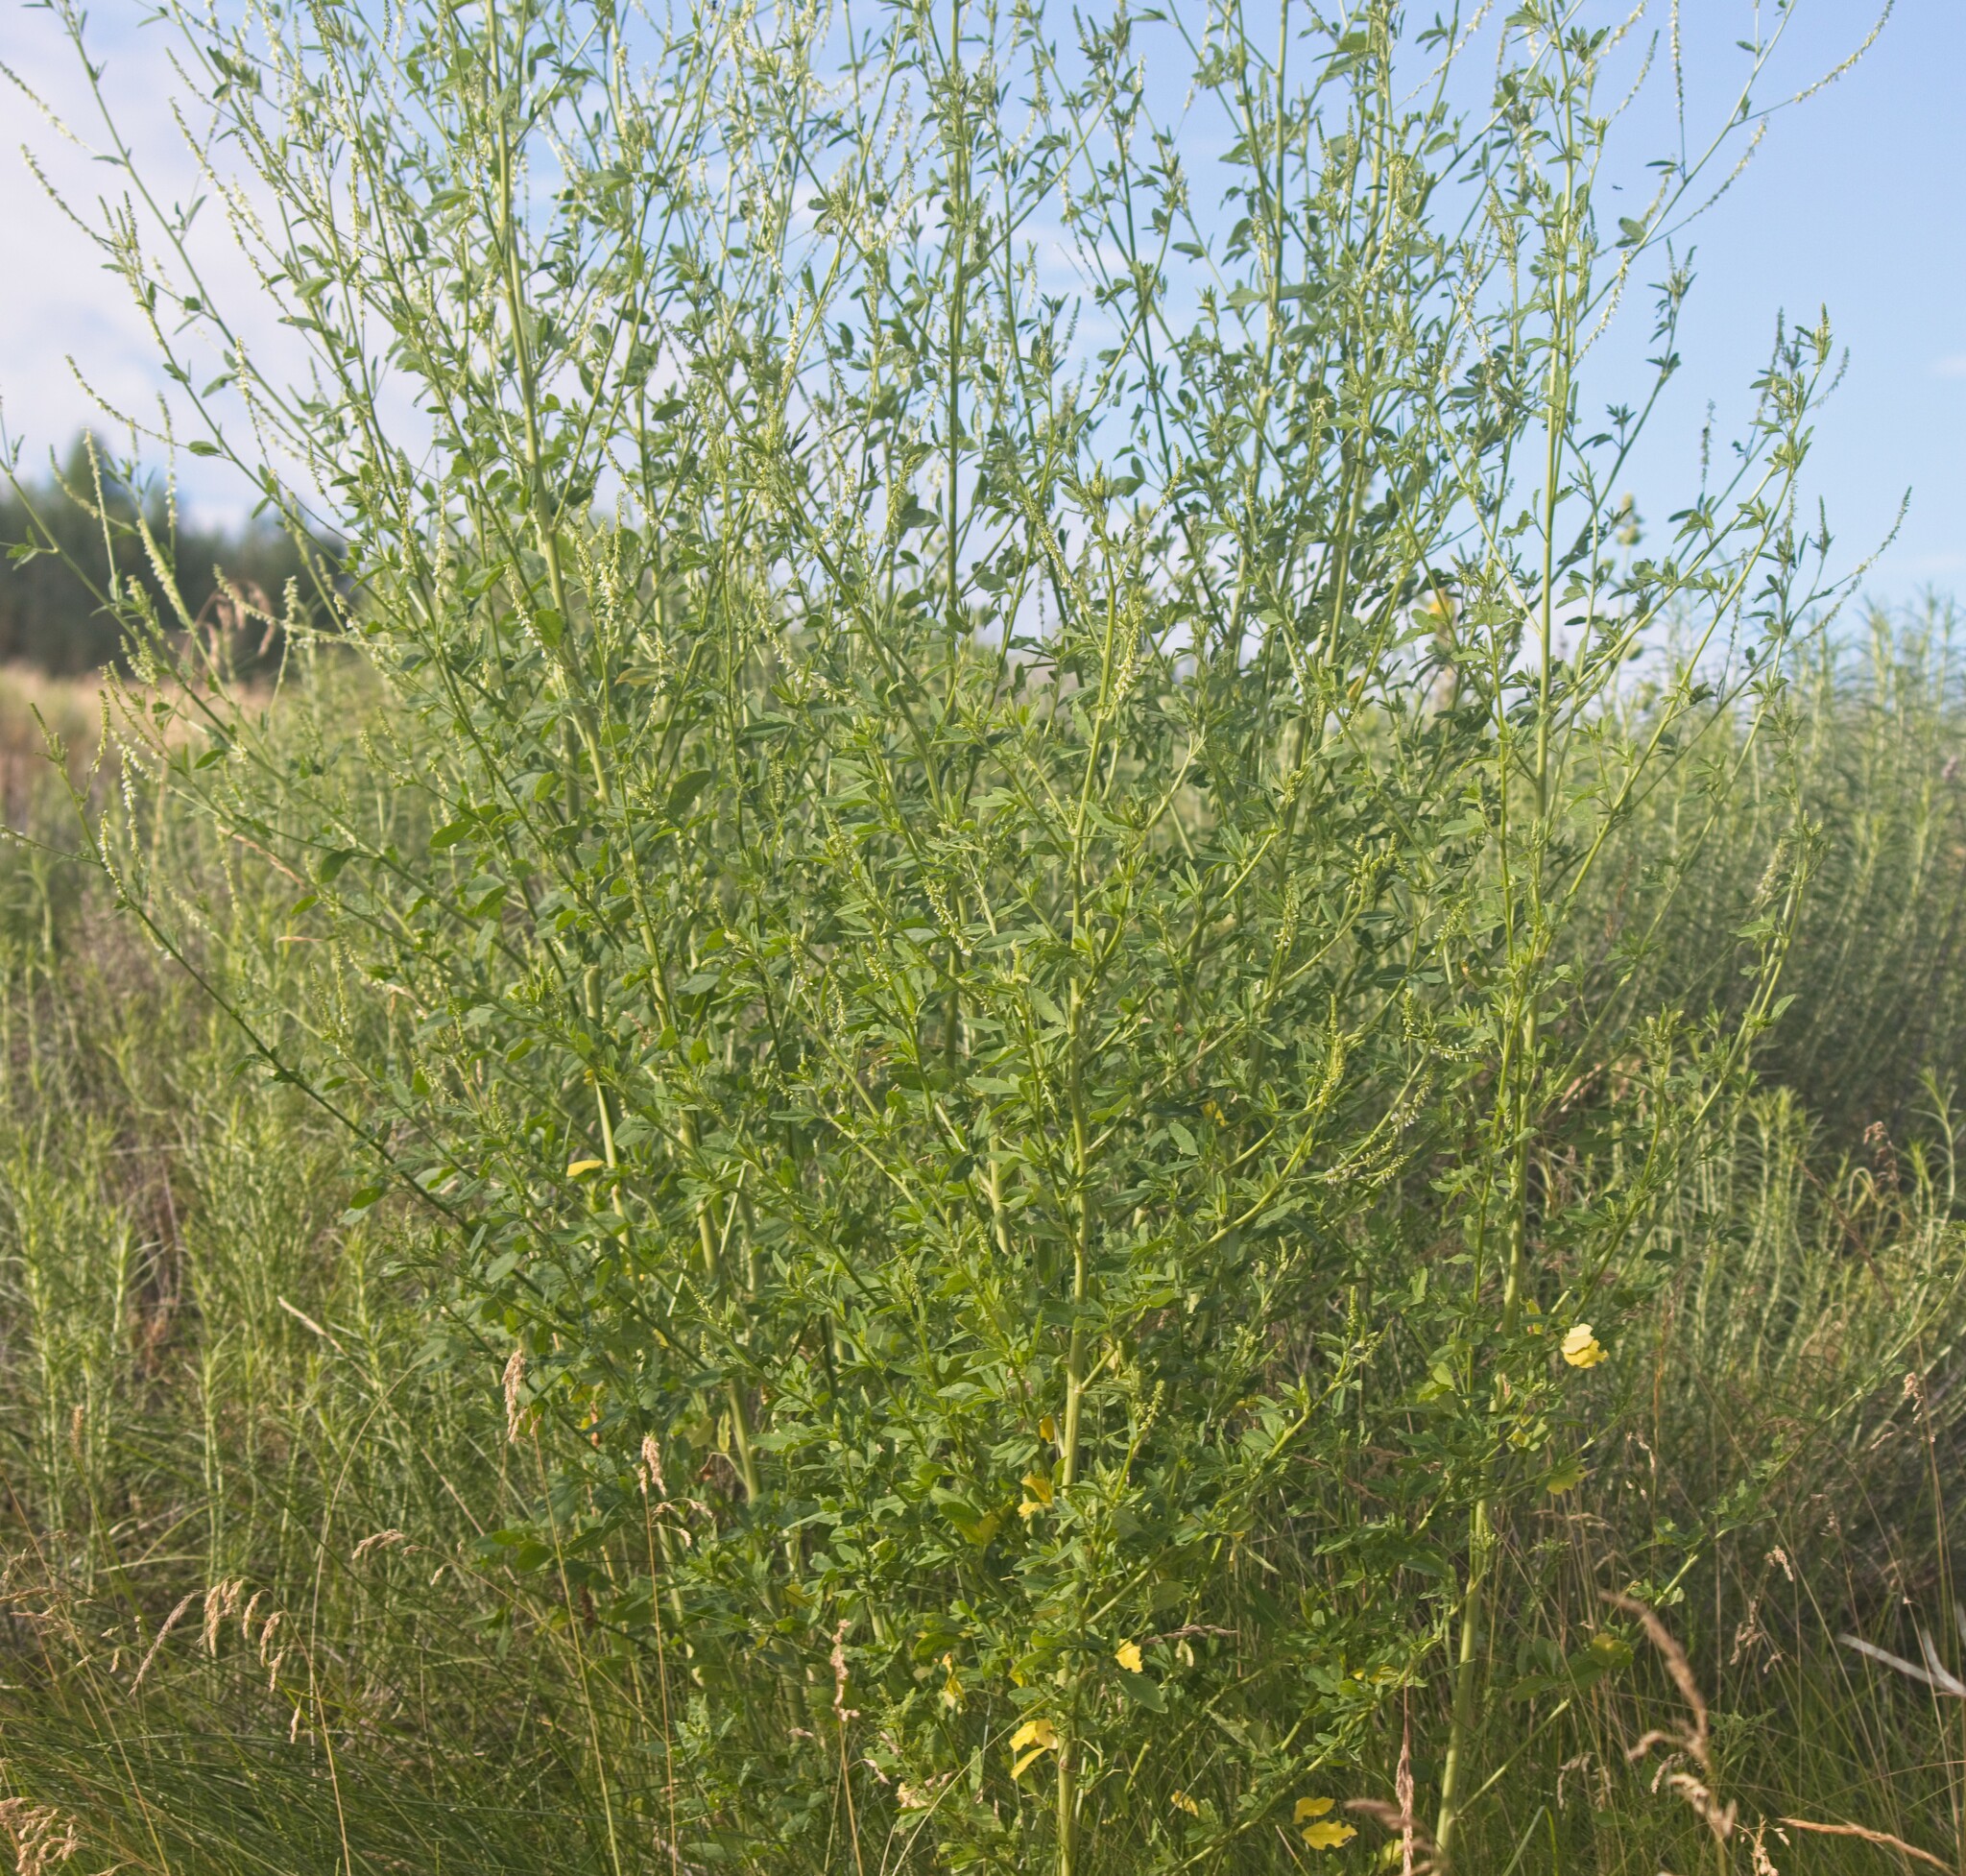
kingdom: Plantae
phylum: Tracheophyta
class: Magnoliopsida
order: Fabales
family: Fabaceae
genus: Melilotus
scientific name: Melilotus albus
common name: White melilot
